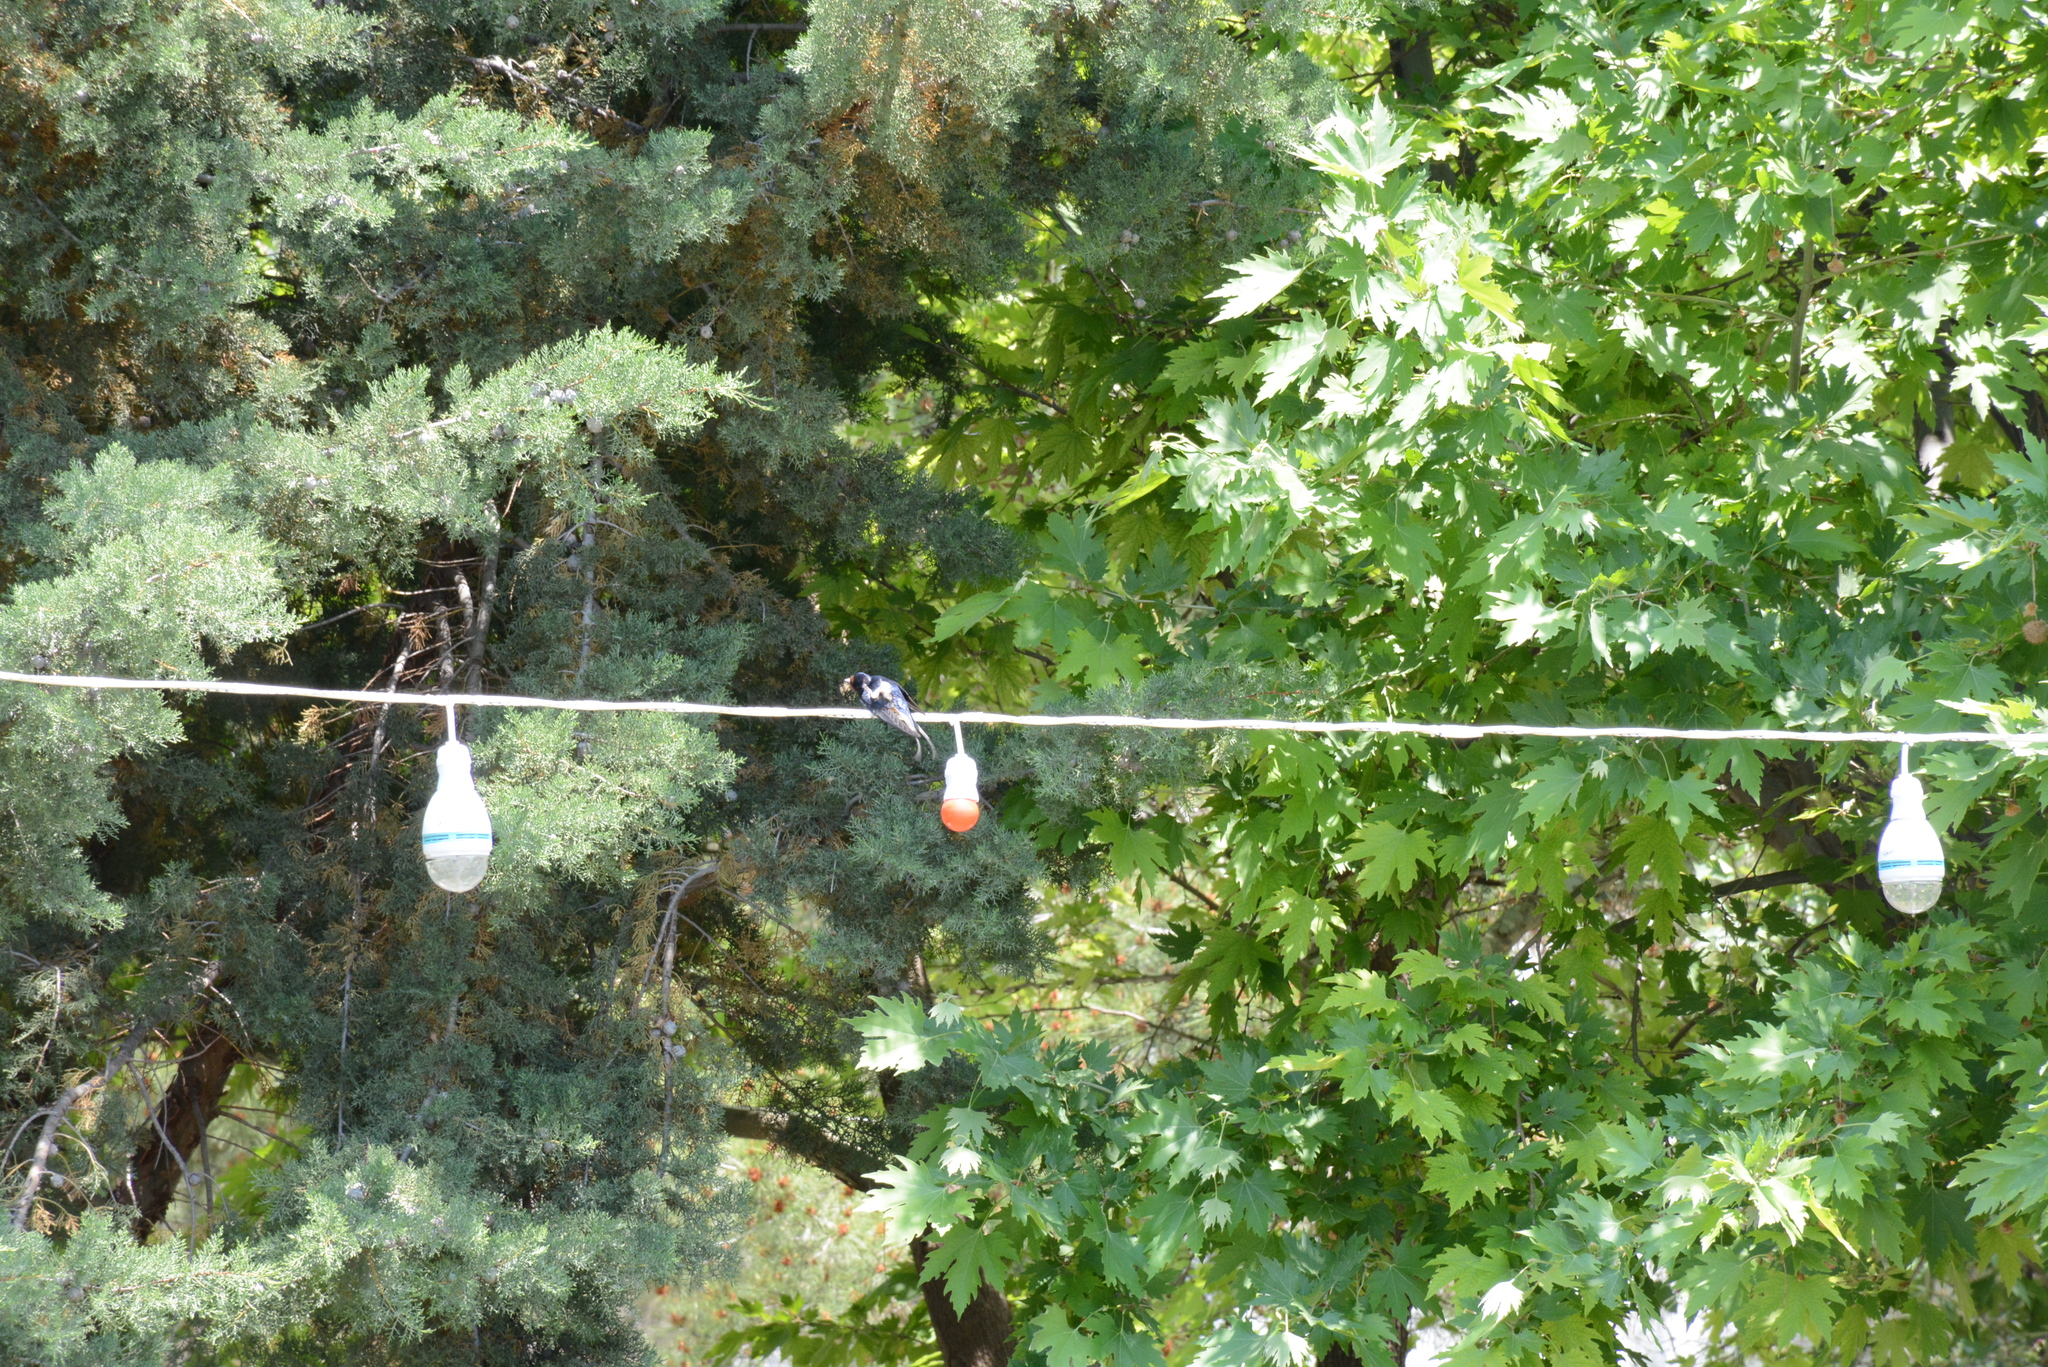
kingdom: Animalia
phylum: Chordata
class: Aves
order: Passeriformes
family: Hirundinidae
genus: Hirundo
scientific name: Hirundo rustica
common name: Barn swallow
